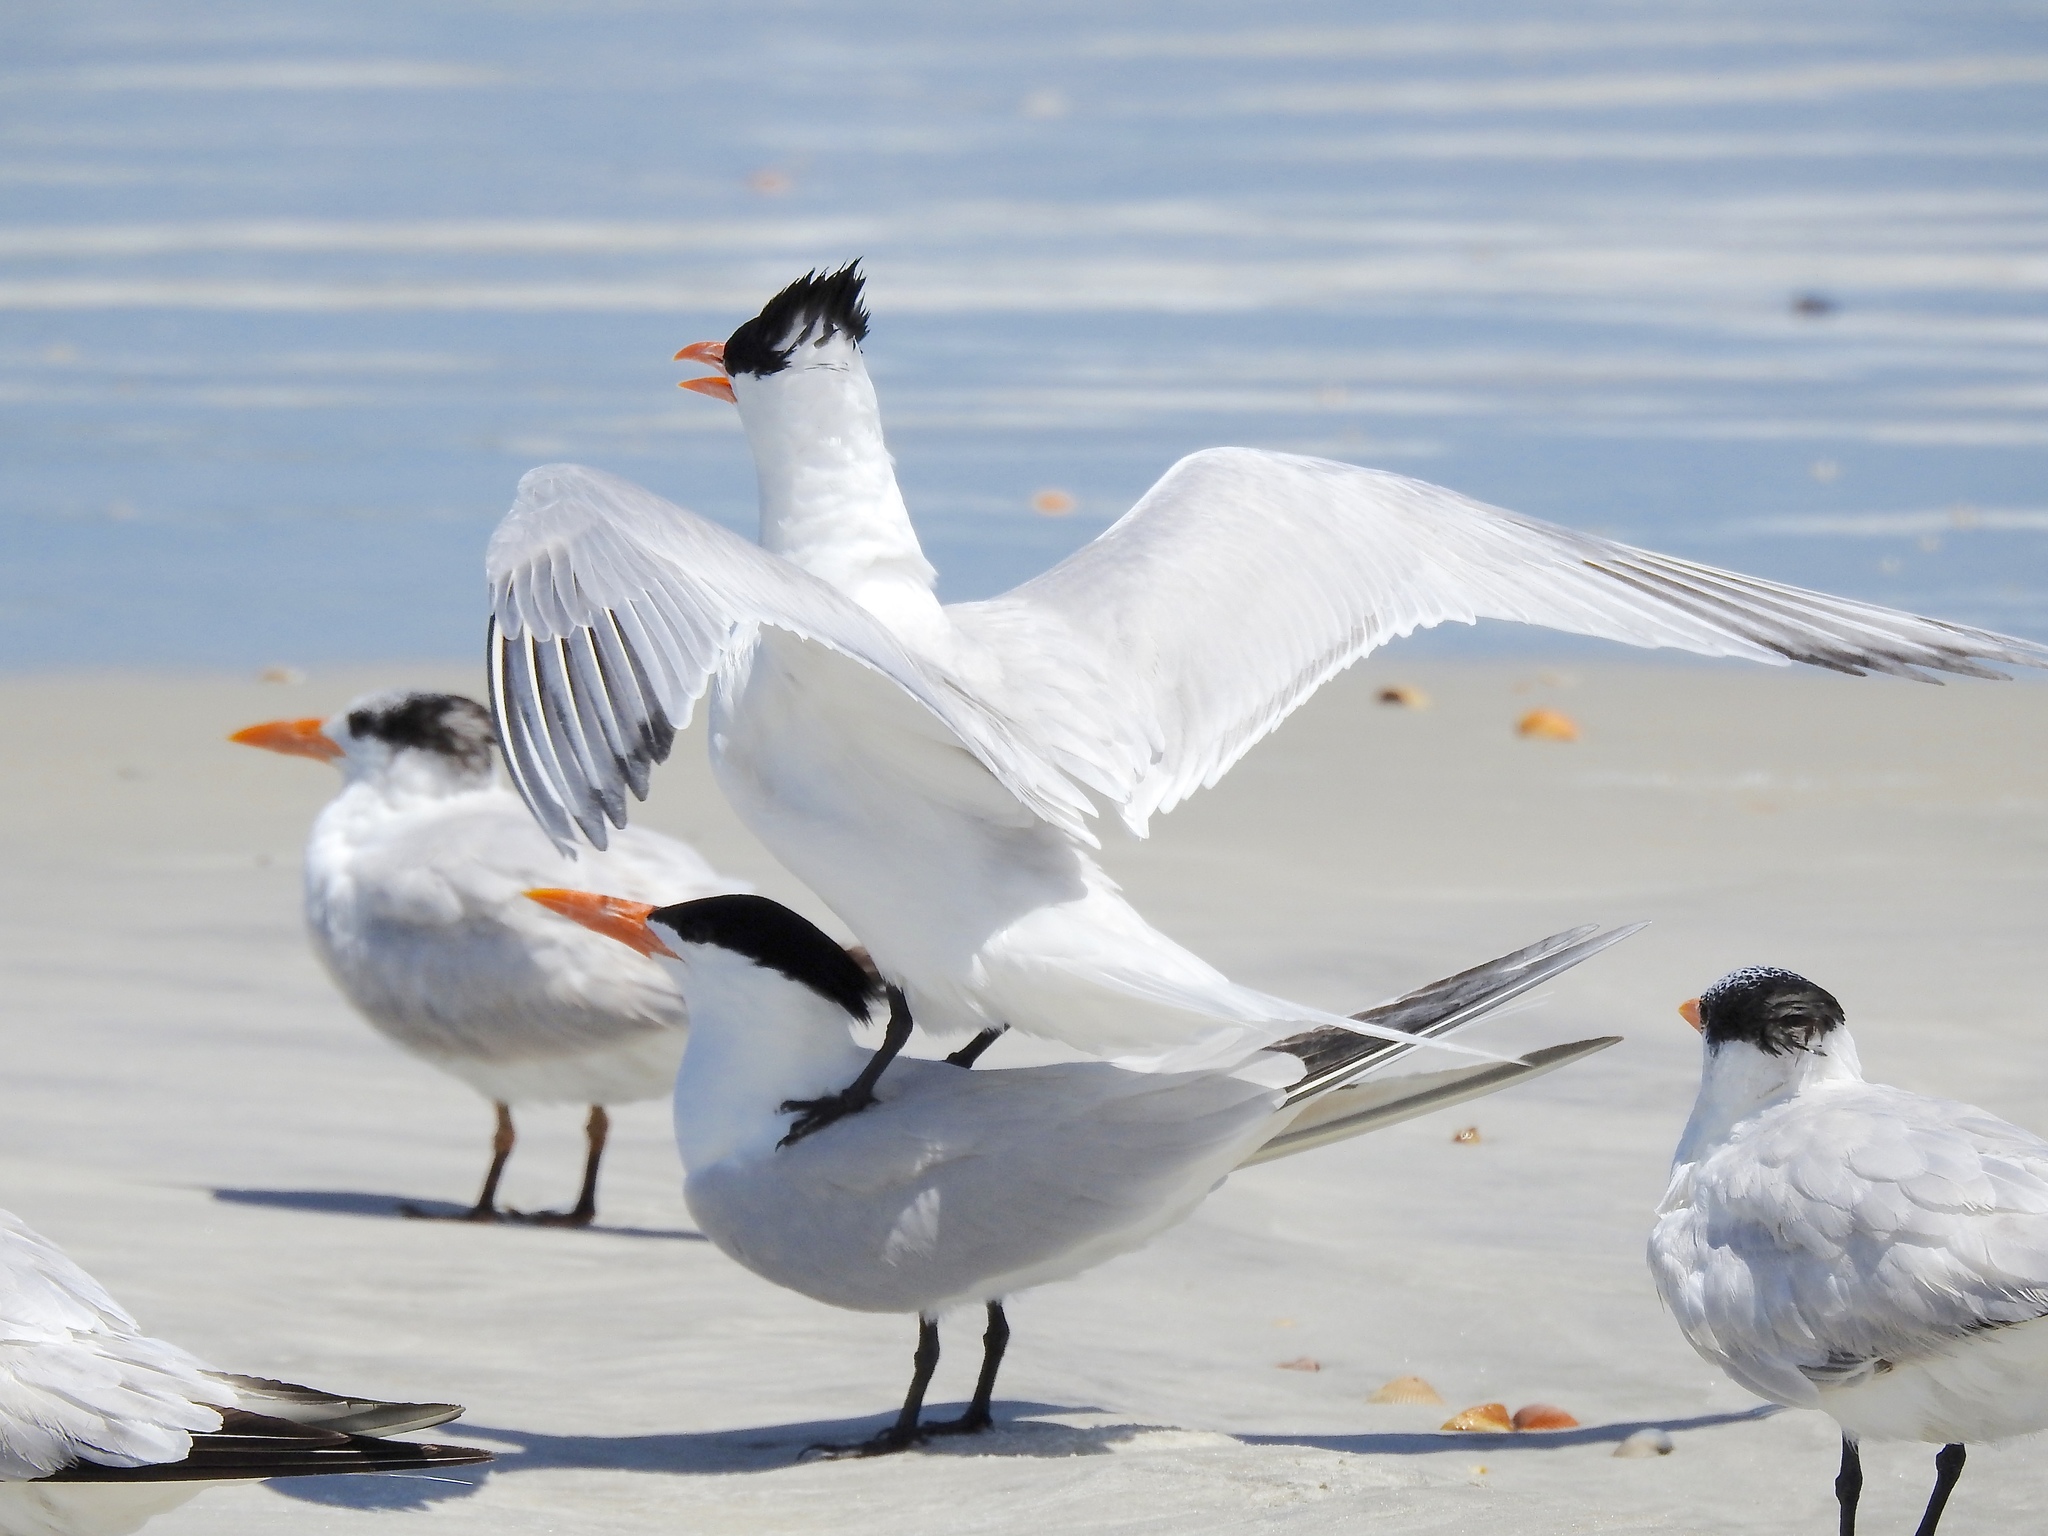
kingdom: Animalia
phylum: Chordata
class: Aves
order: Charadriiformes
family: Laridae
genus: Thalasseus
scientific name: Thalasseus maximus
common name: Royal tern
